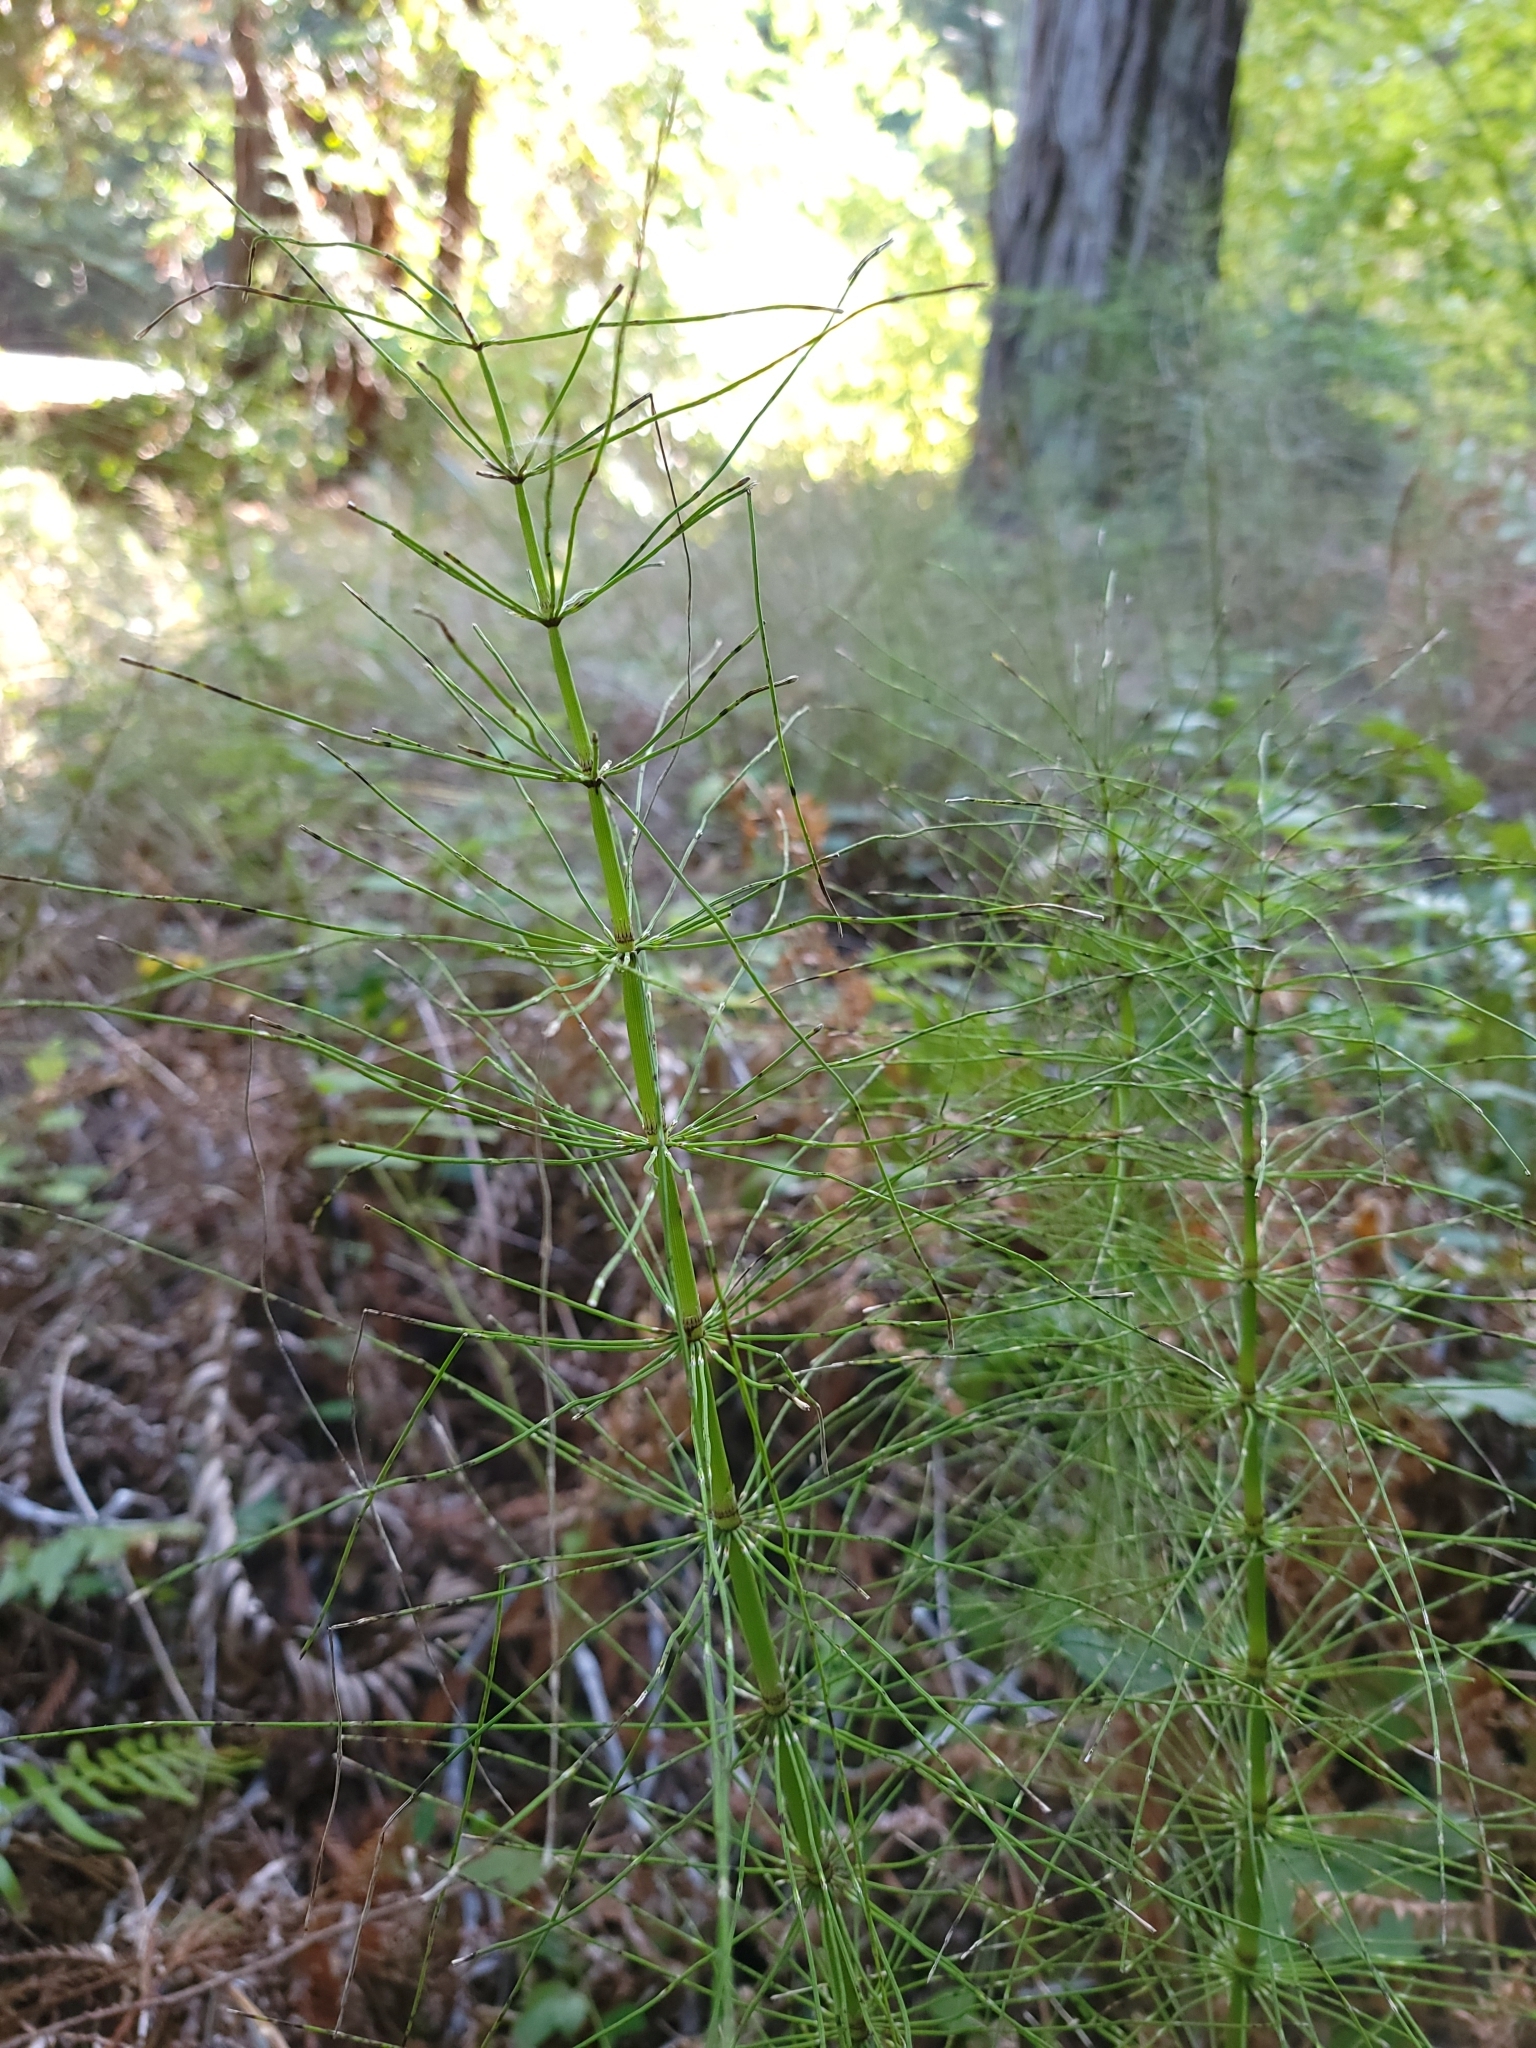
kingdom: Plantae
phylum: Tracheophyta
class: Polypodiopsida
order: Equisetales
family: Equisetaceae
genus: Equisetum
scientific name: Equisetum braunii
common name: Braun's horsetail
